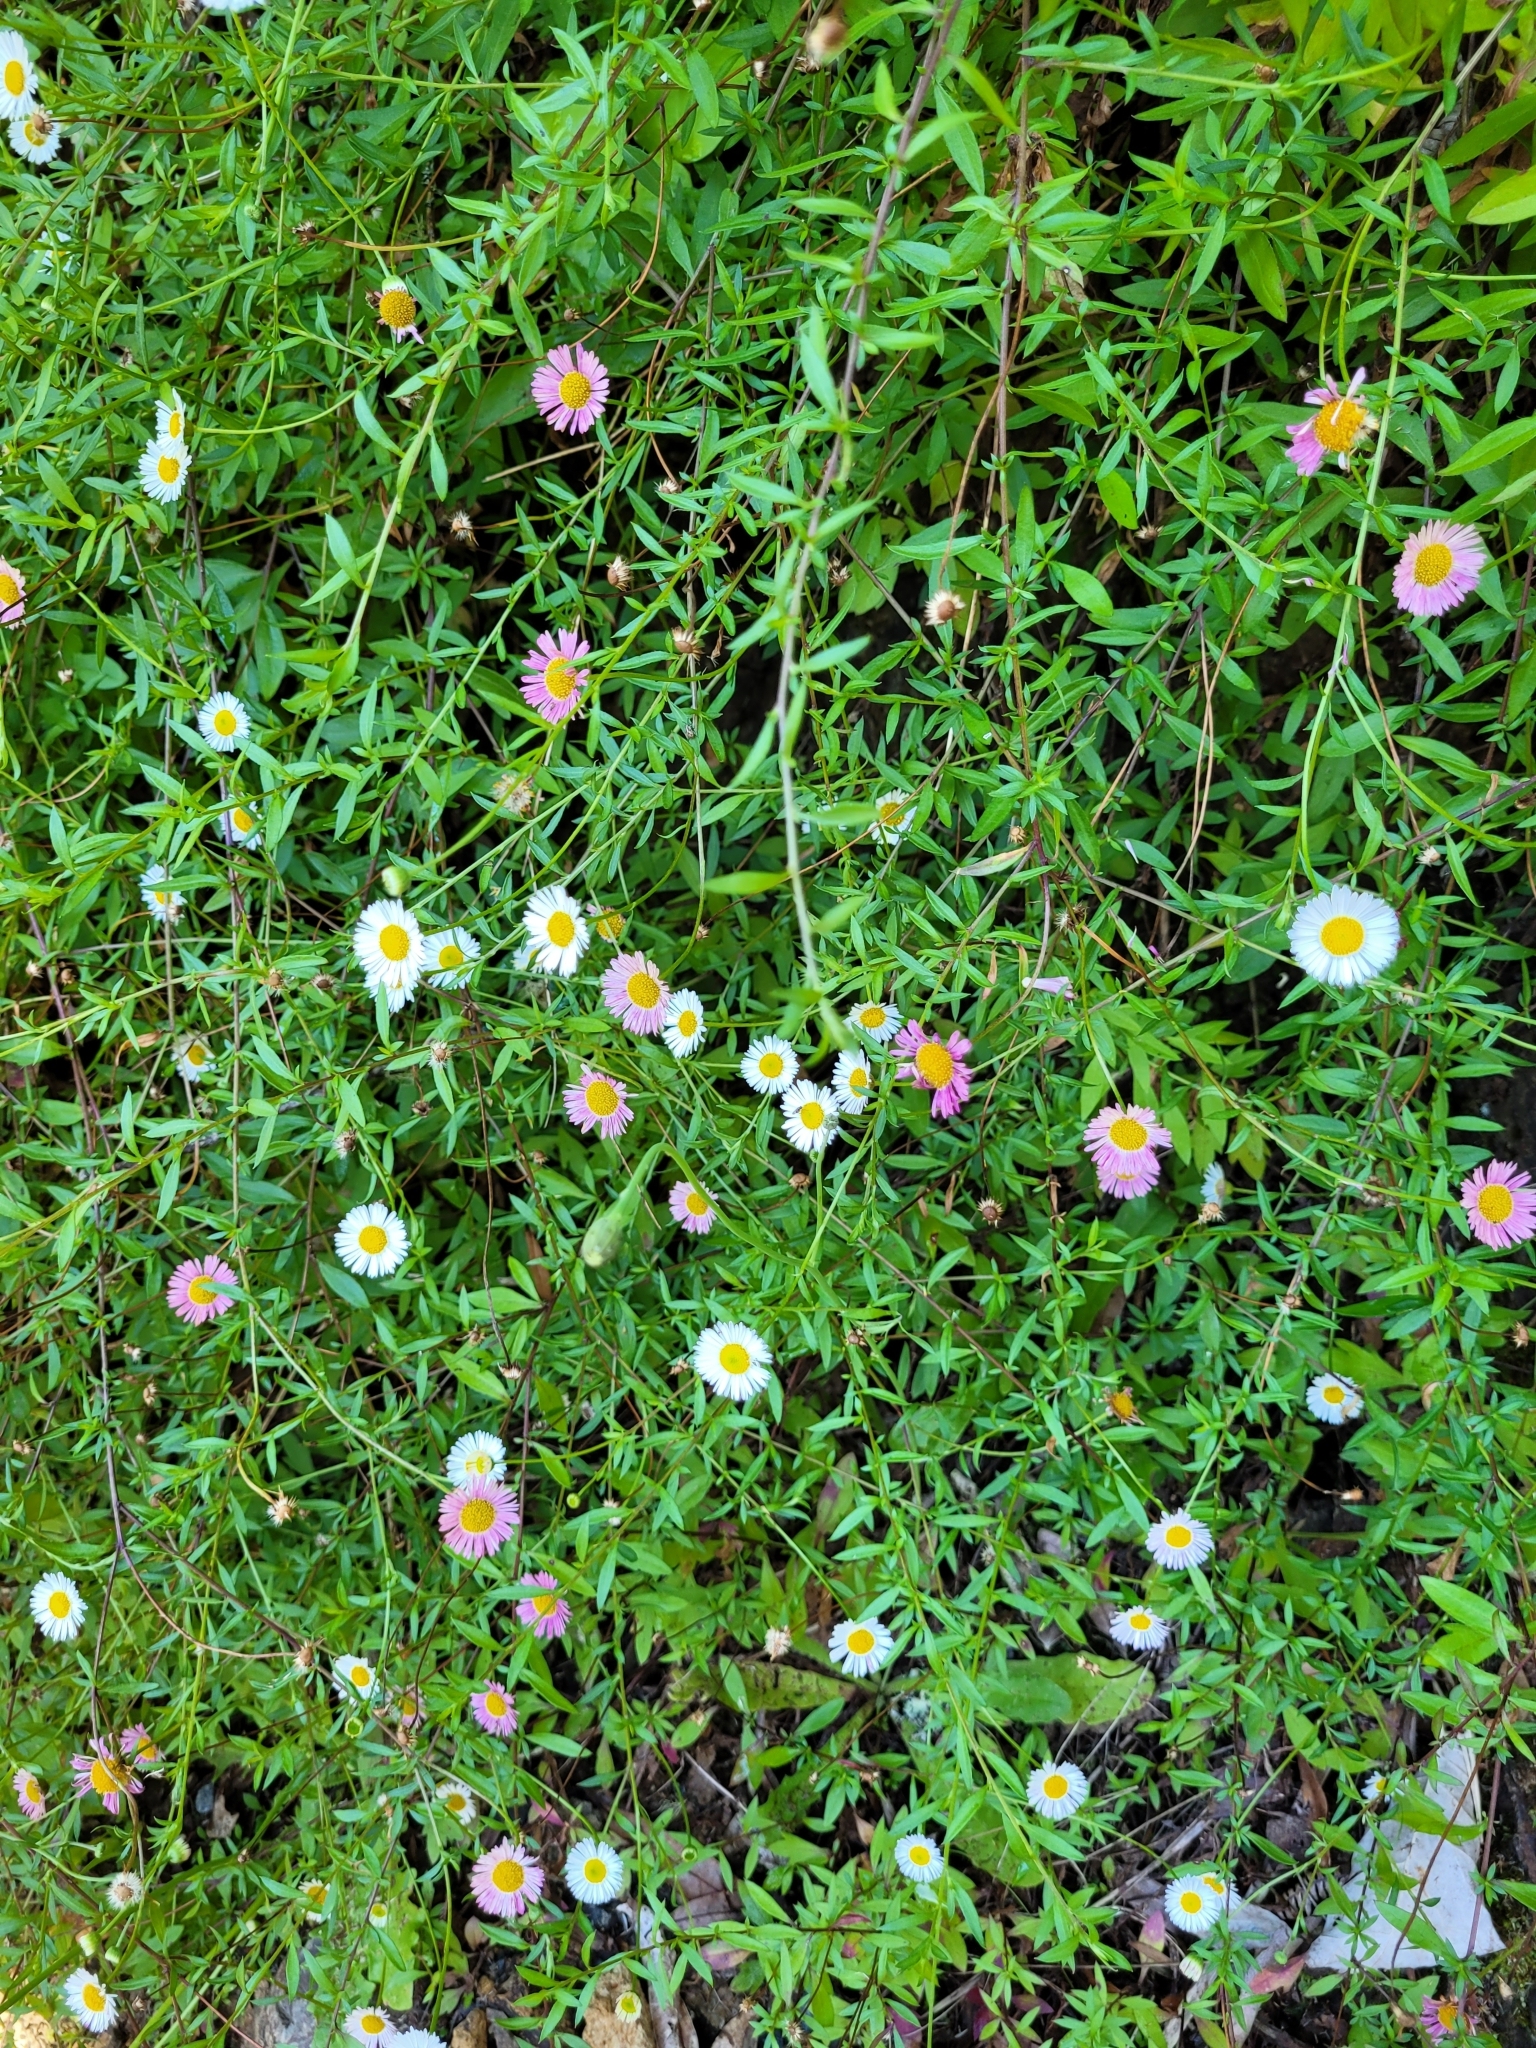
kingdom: Plantae
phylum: Tracheophyta
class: Magnoliopsida
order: Asterales
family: Asteraceae
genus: Erigeron
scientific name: Erigeron karvinskianus
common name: Mexican fleabane
